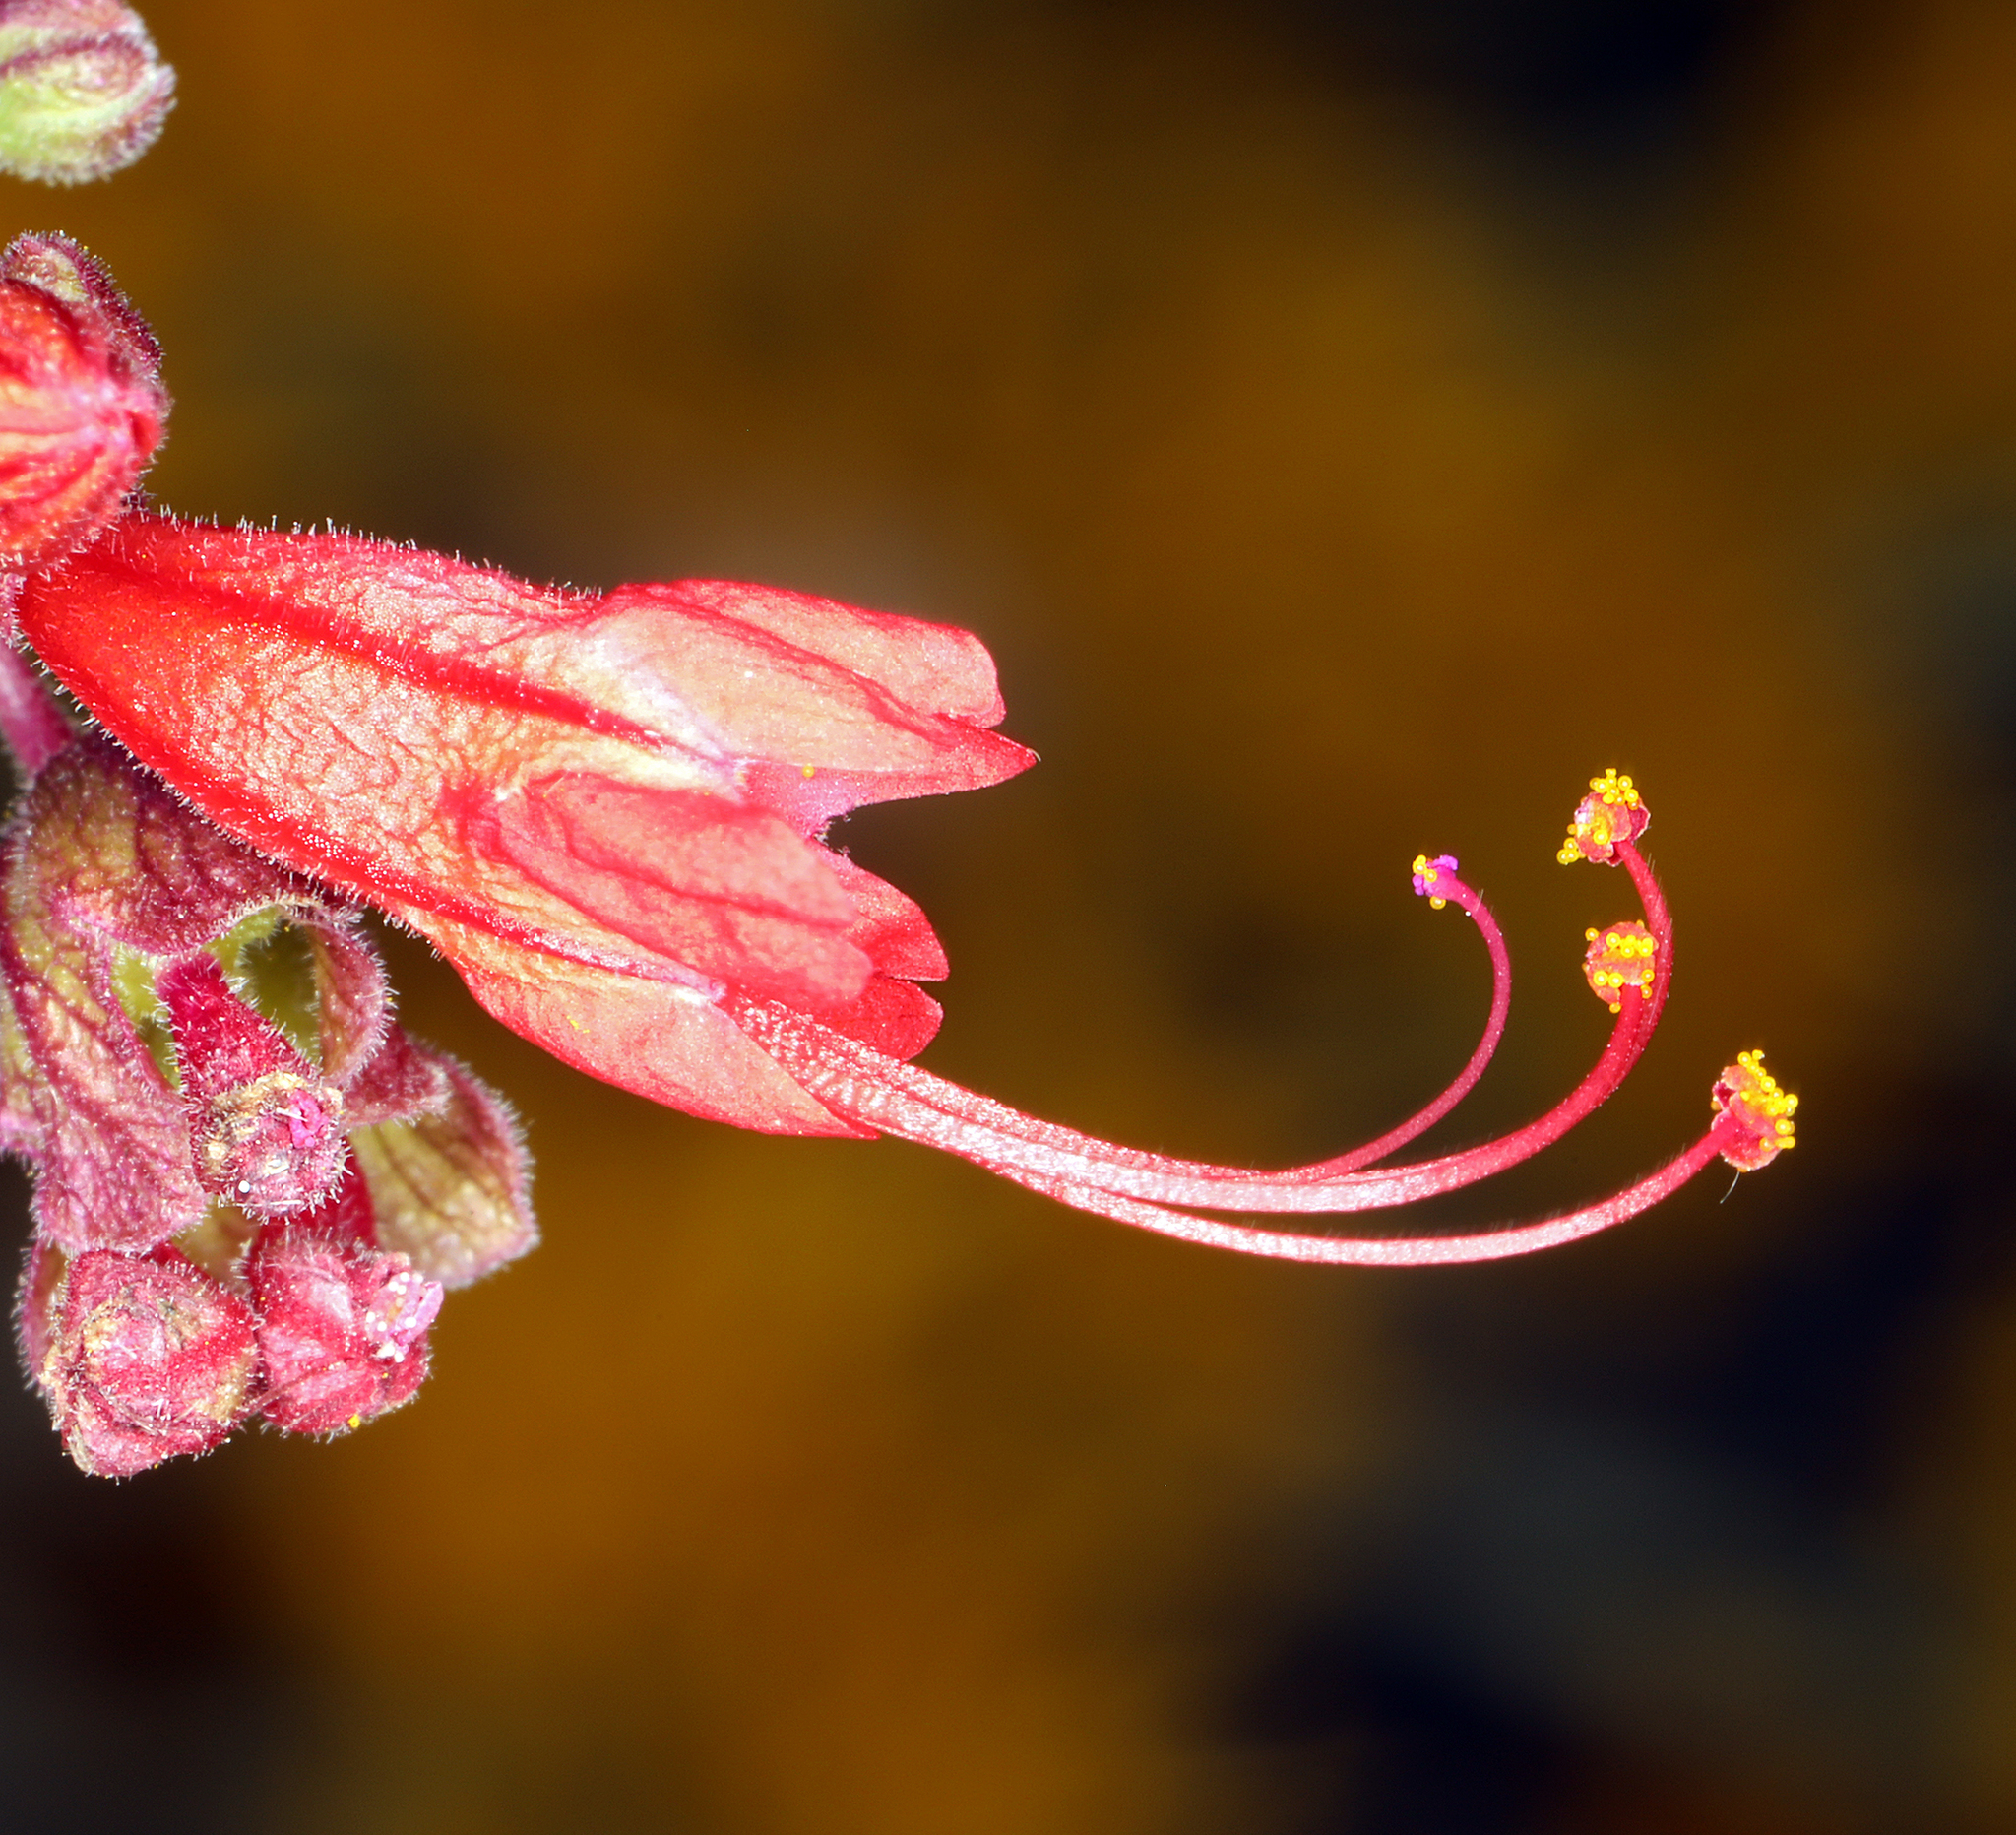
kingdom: Plantae
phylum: Tracheophyta
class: Magnoliopsida
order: Caryophyllales
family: Nyctaginaceae
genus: Mirabilis
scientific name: Mirabilis coccinea
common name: Scarlet four-o'clock
